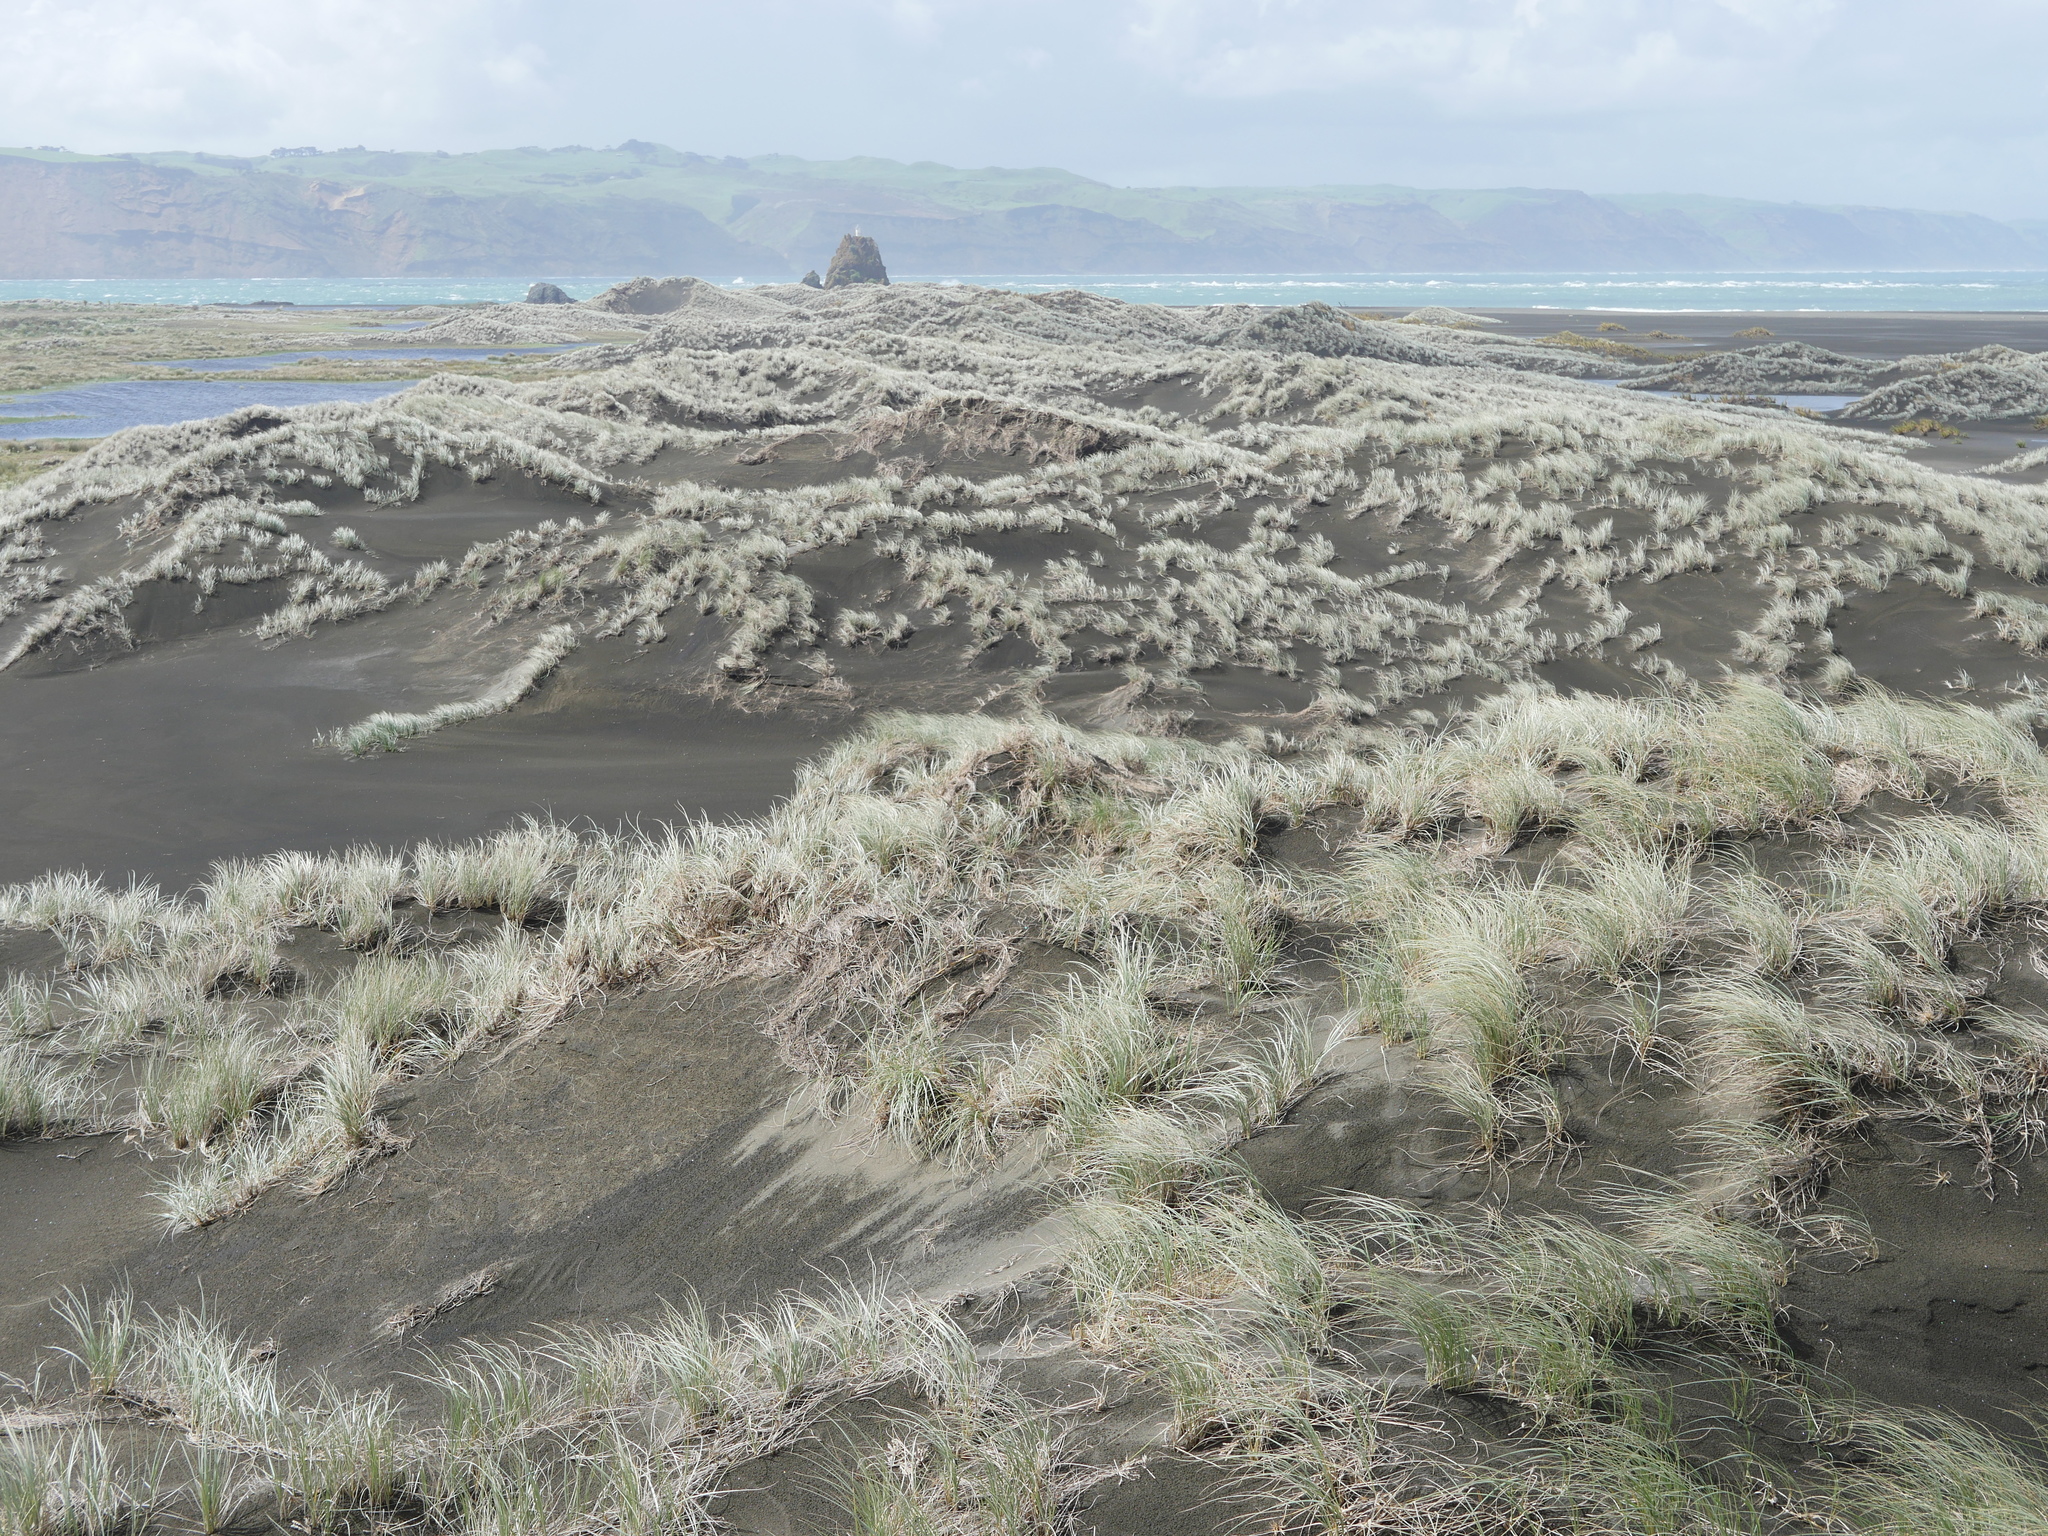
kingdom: Plantae
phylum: Tracheophyta
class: Liliopsida
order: Poales
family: Poaceae
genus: Spinifex
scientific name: Spinifex sericeus
